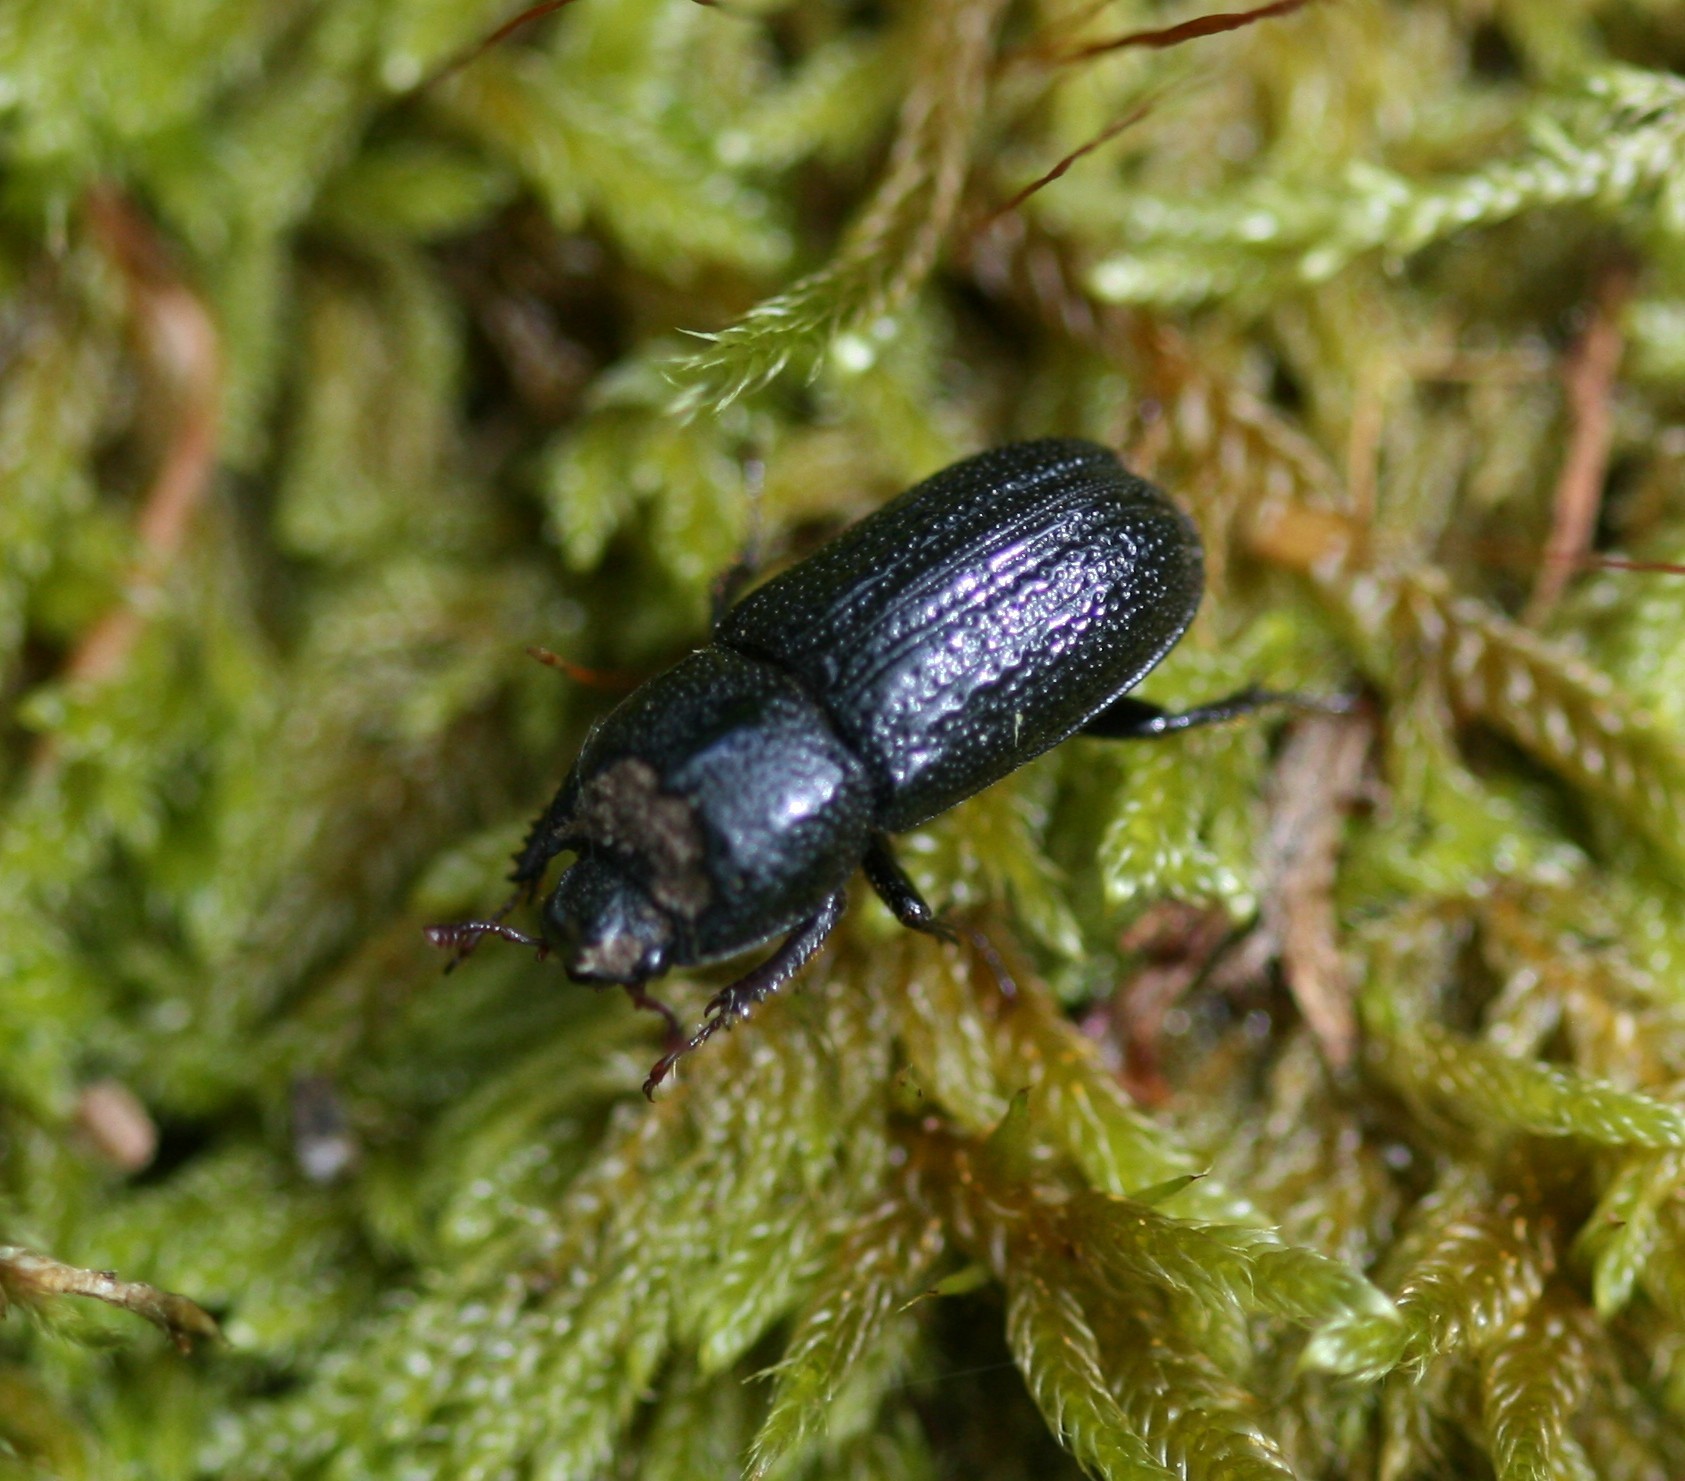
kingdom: Animalia
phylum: Arthropoda
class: Insecta
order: Coleoptera
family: Lucanidae
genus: Sinodendron
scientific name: Sinodendron cylindricum
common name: Rhinoceros beetle
